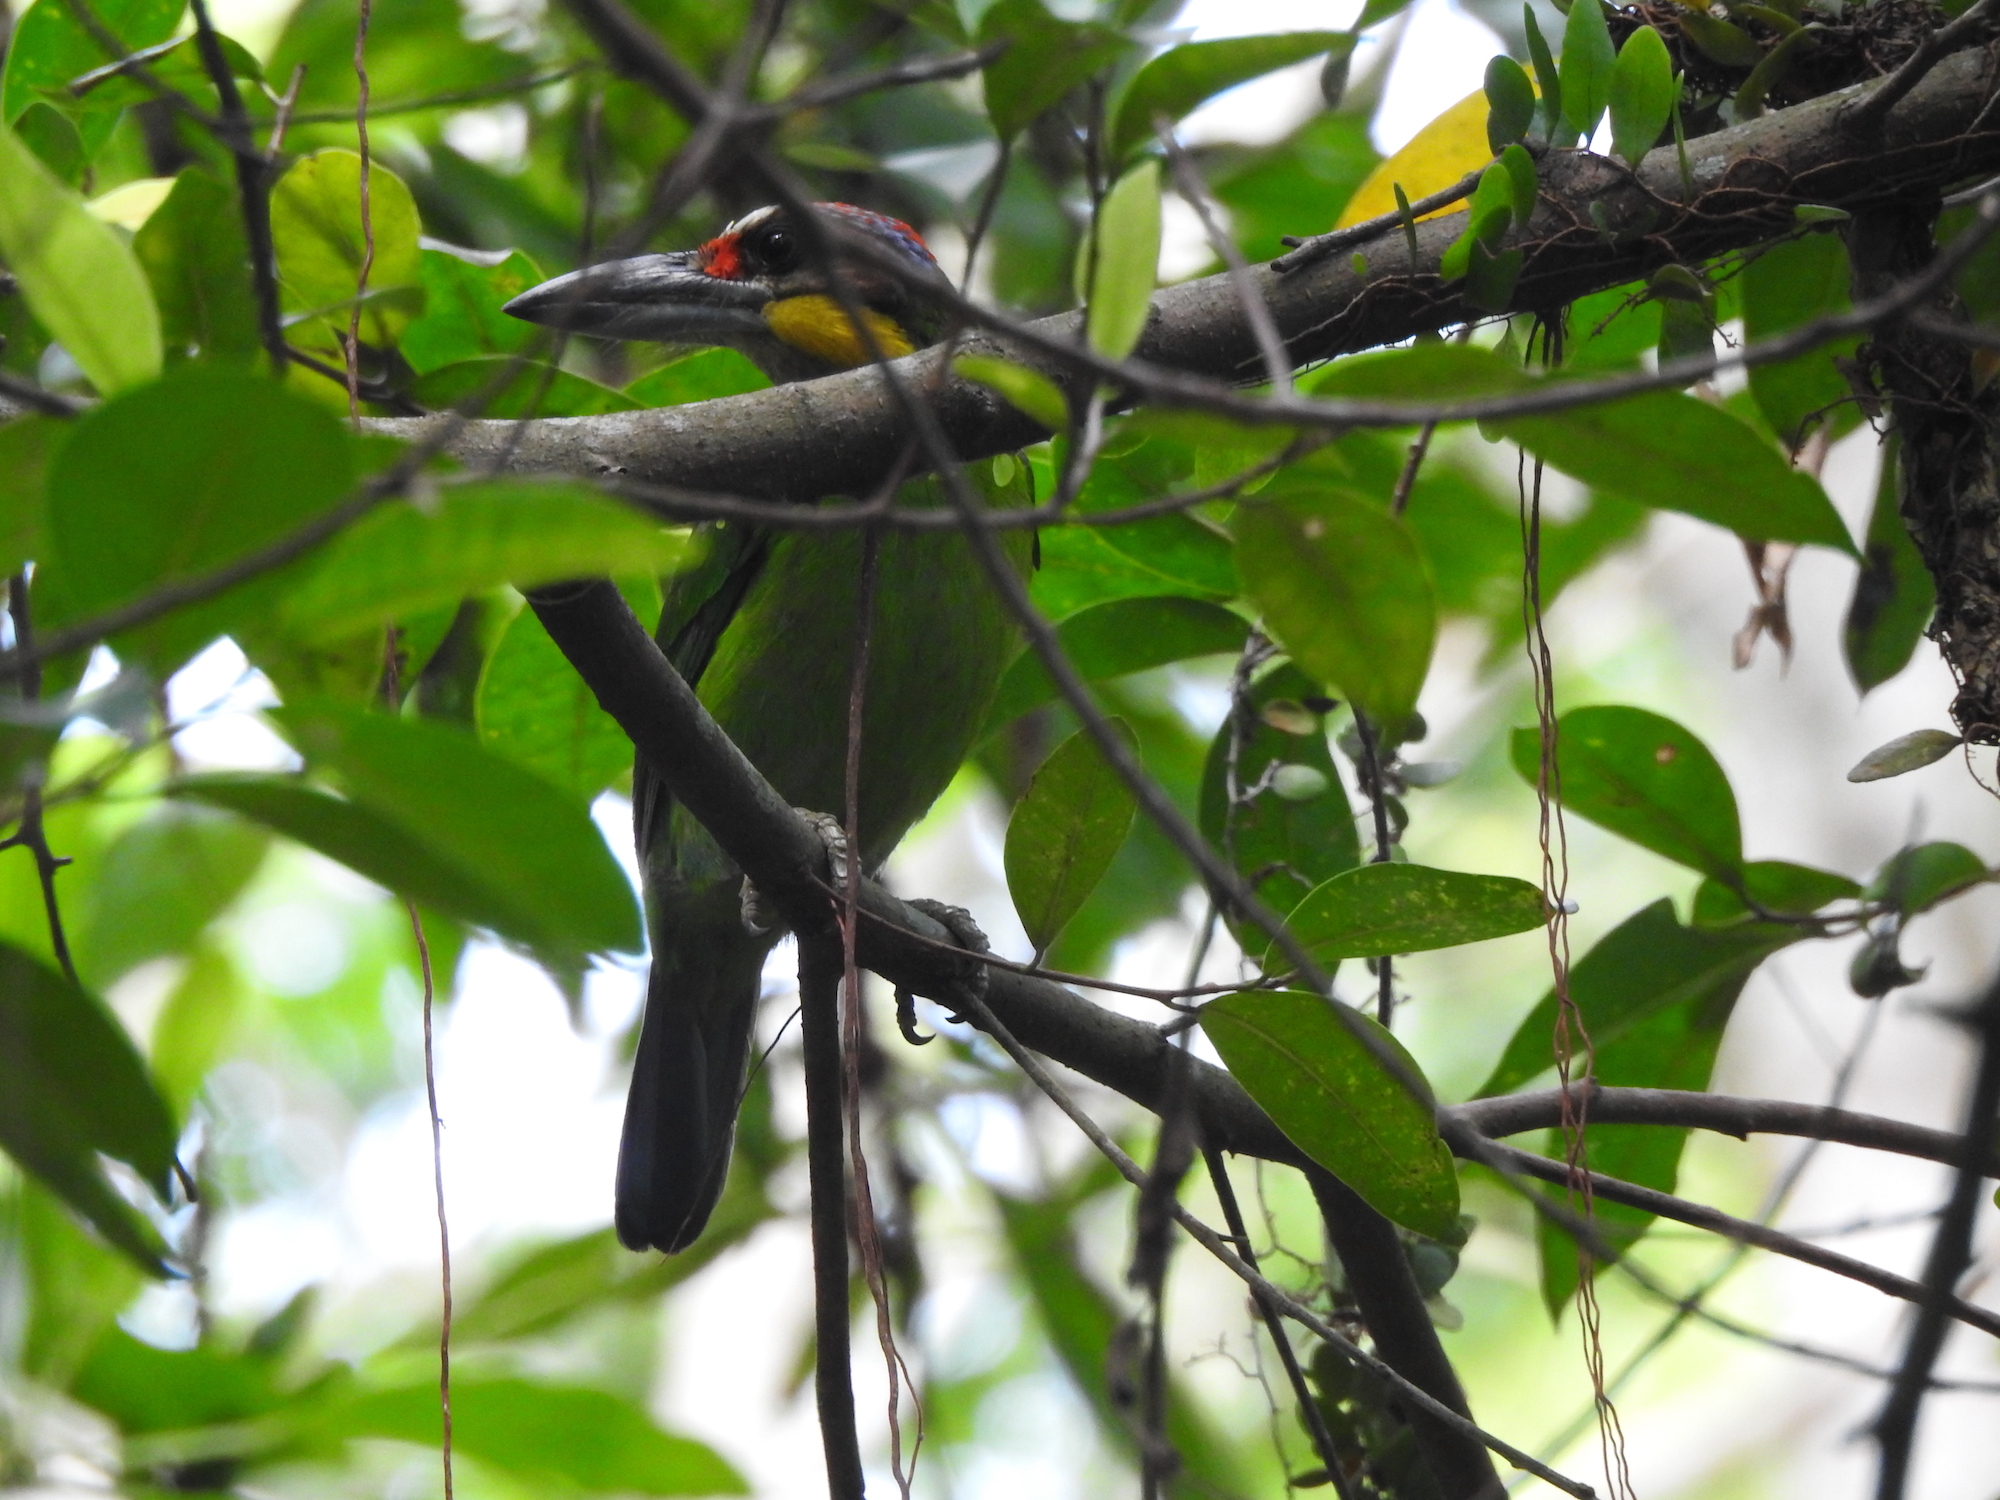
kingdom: Animalia
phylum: Chordata
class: Aves
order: Piciformes
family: Megalaimidae
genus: Psilopogon
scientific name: Psilopogon chrysopogon
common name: Golden-whiskered barbet
